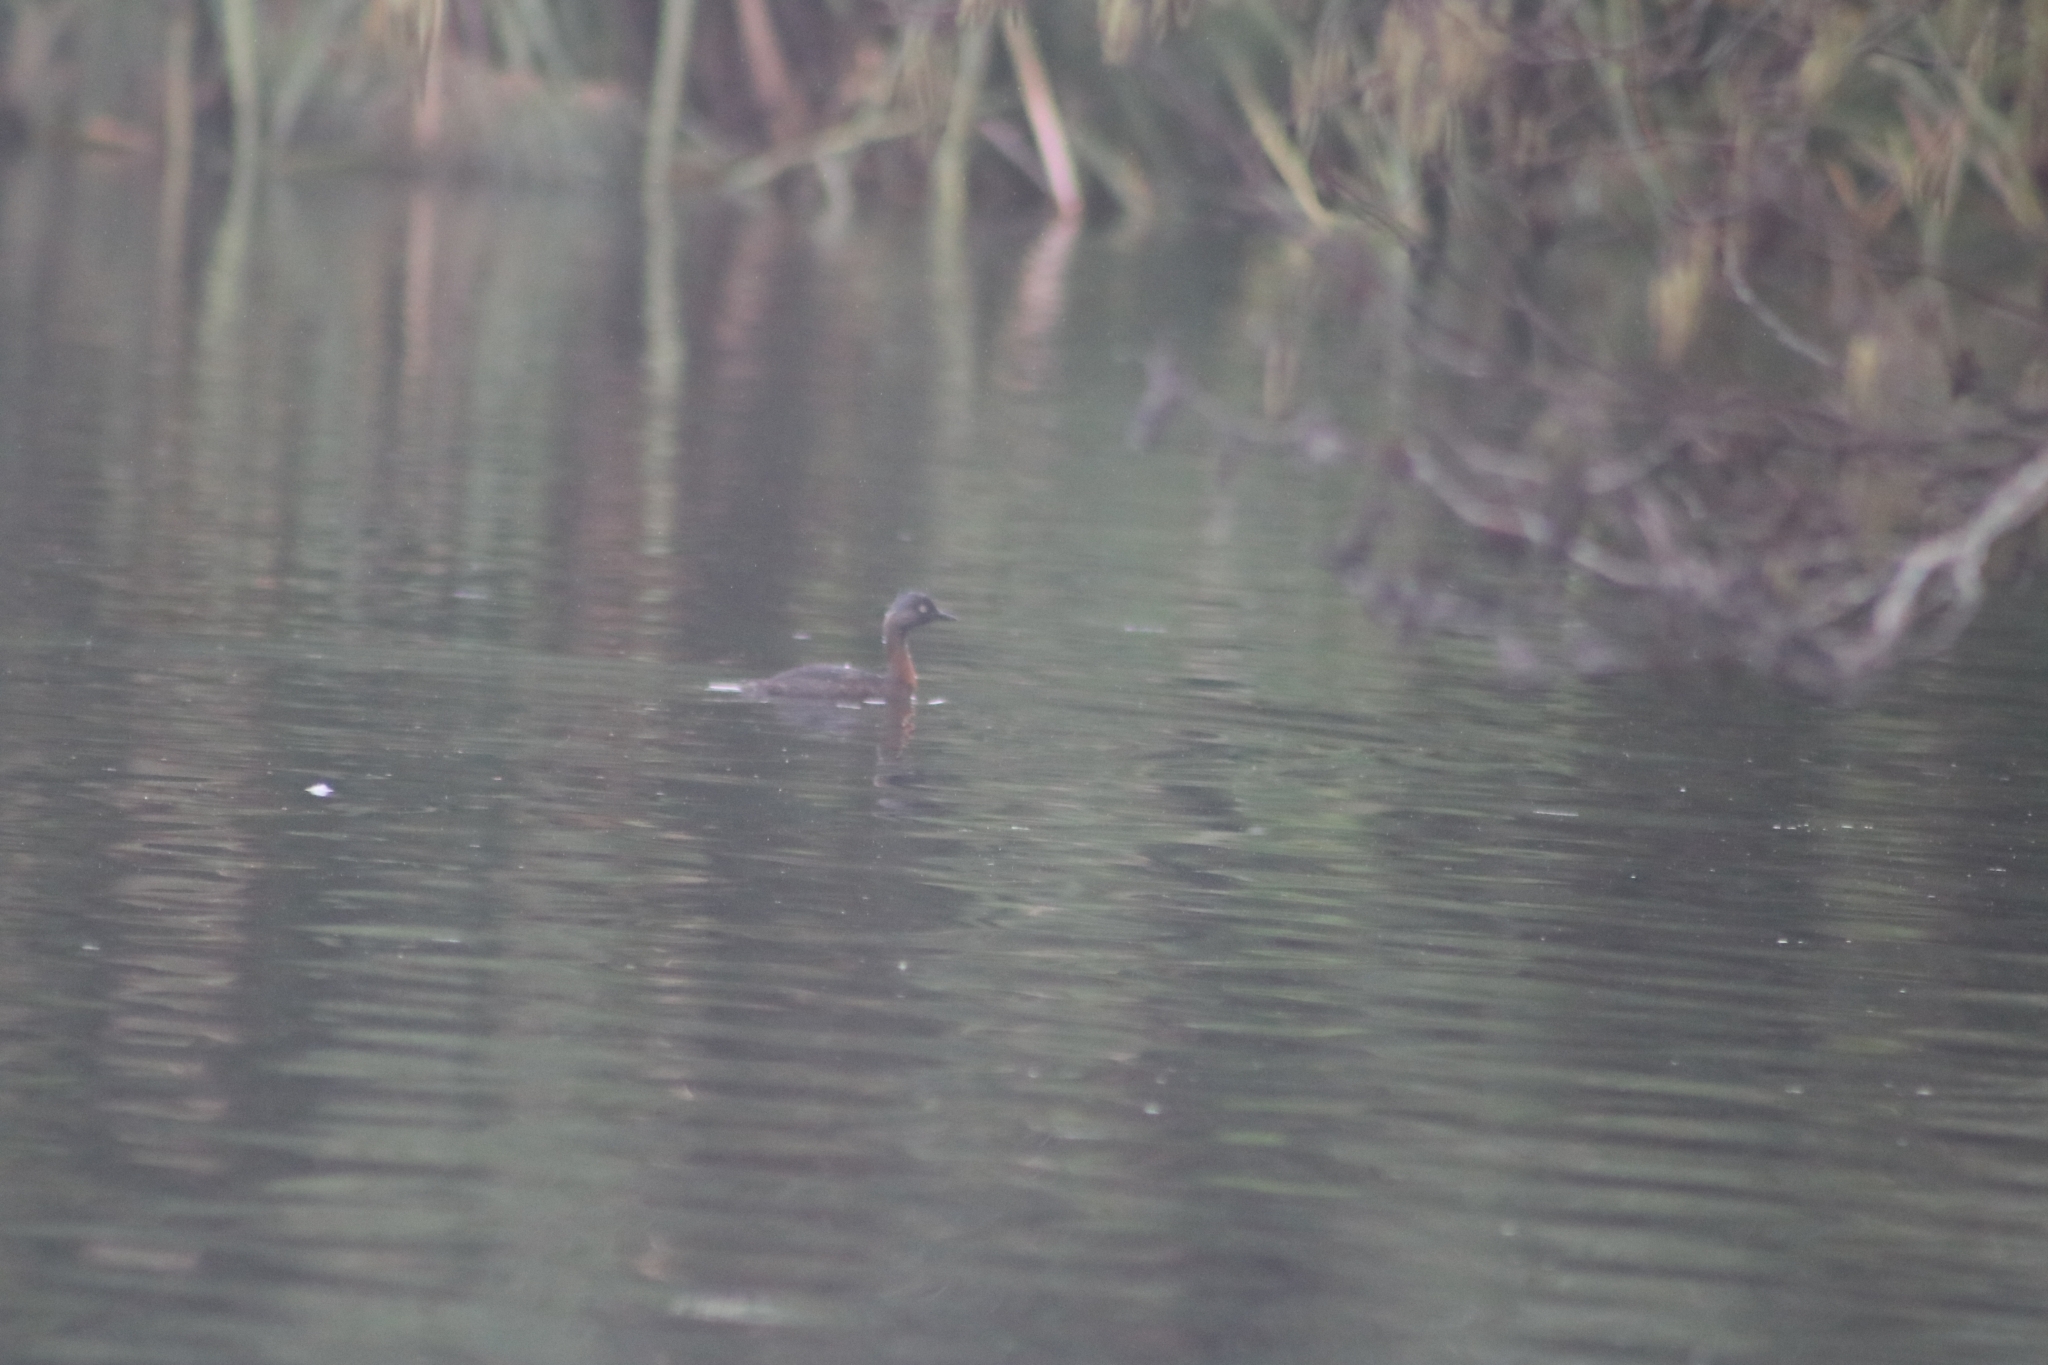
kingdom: Animalia
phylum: Chordata
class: Aves
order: Podicipediformes
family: Podicipedidae
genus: Poliocephalus
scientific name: Poliocephalus rufopectus
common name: New zealand grebe
